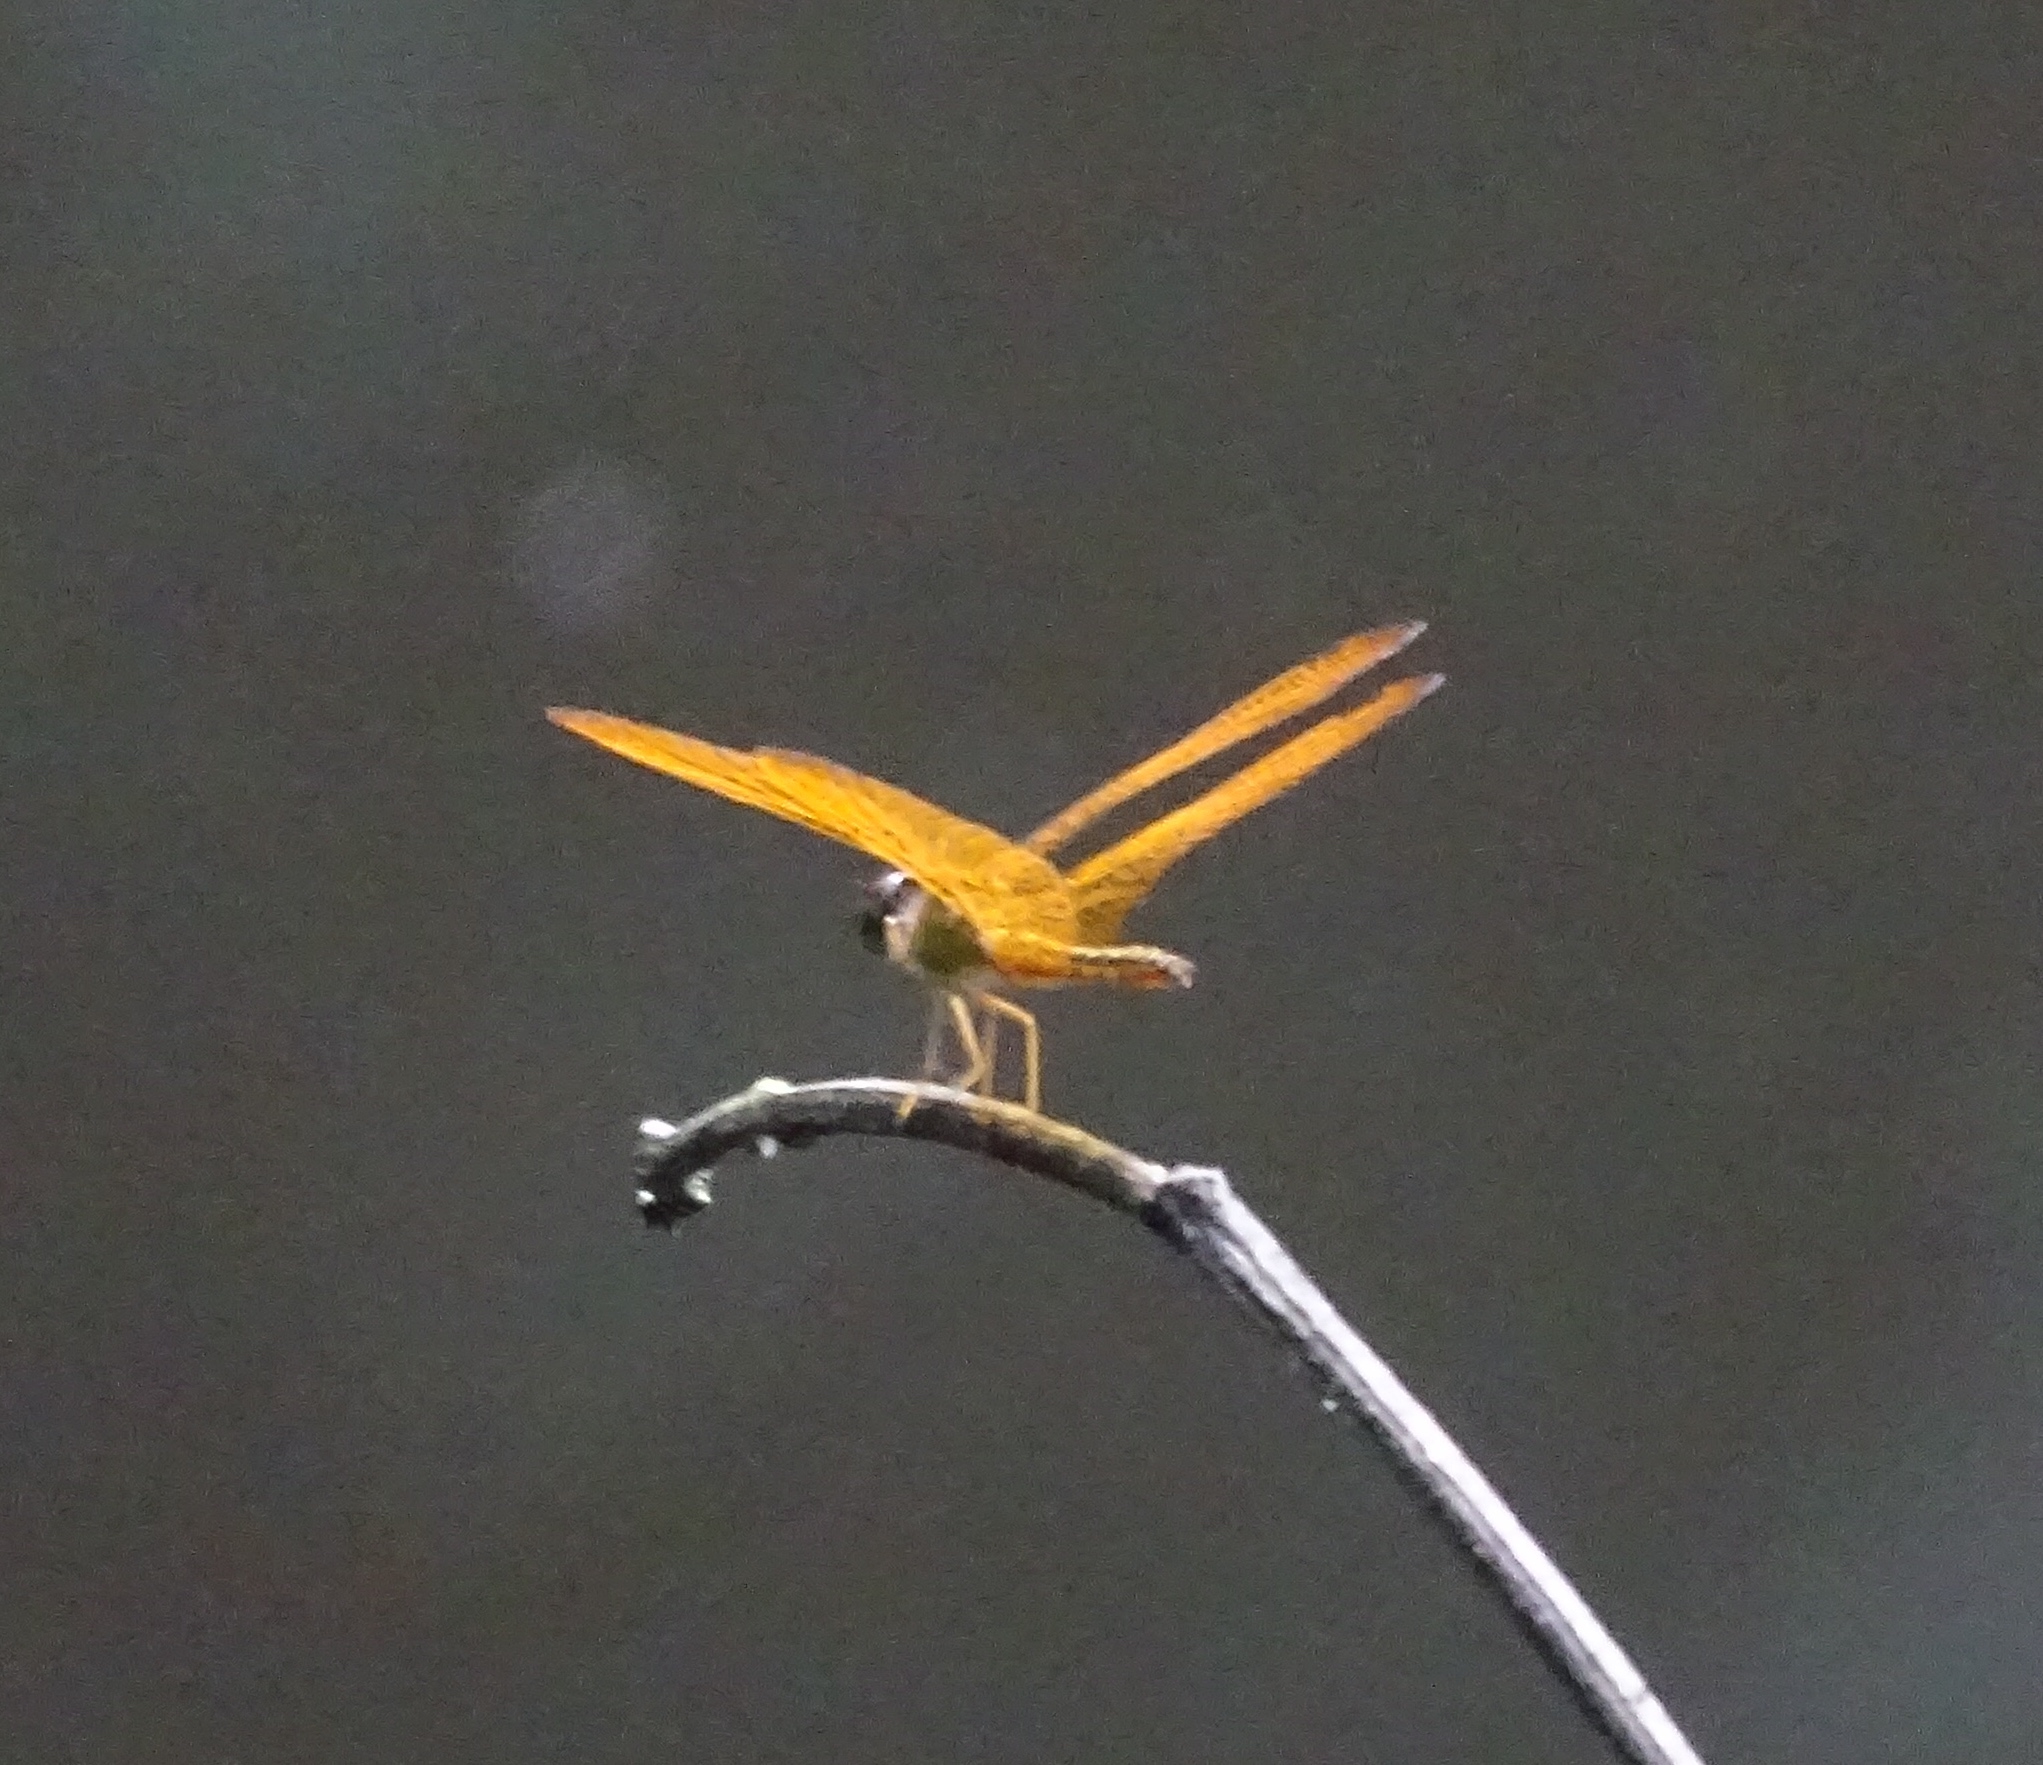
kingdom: Animalia
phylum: Arthropoda
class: Insecta
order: Odonata
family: Libellulidae
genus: Perithemis
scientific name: Perithemis electra
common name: Golden amberwing
